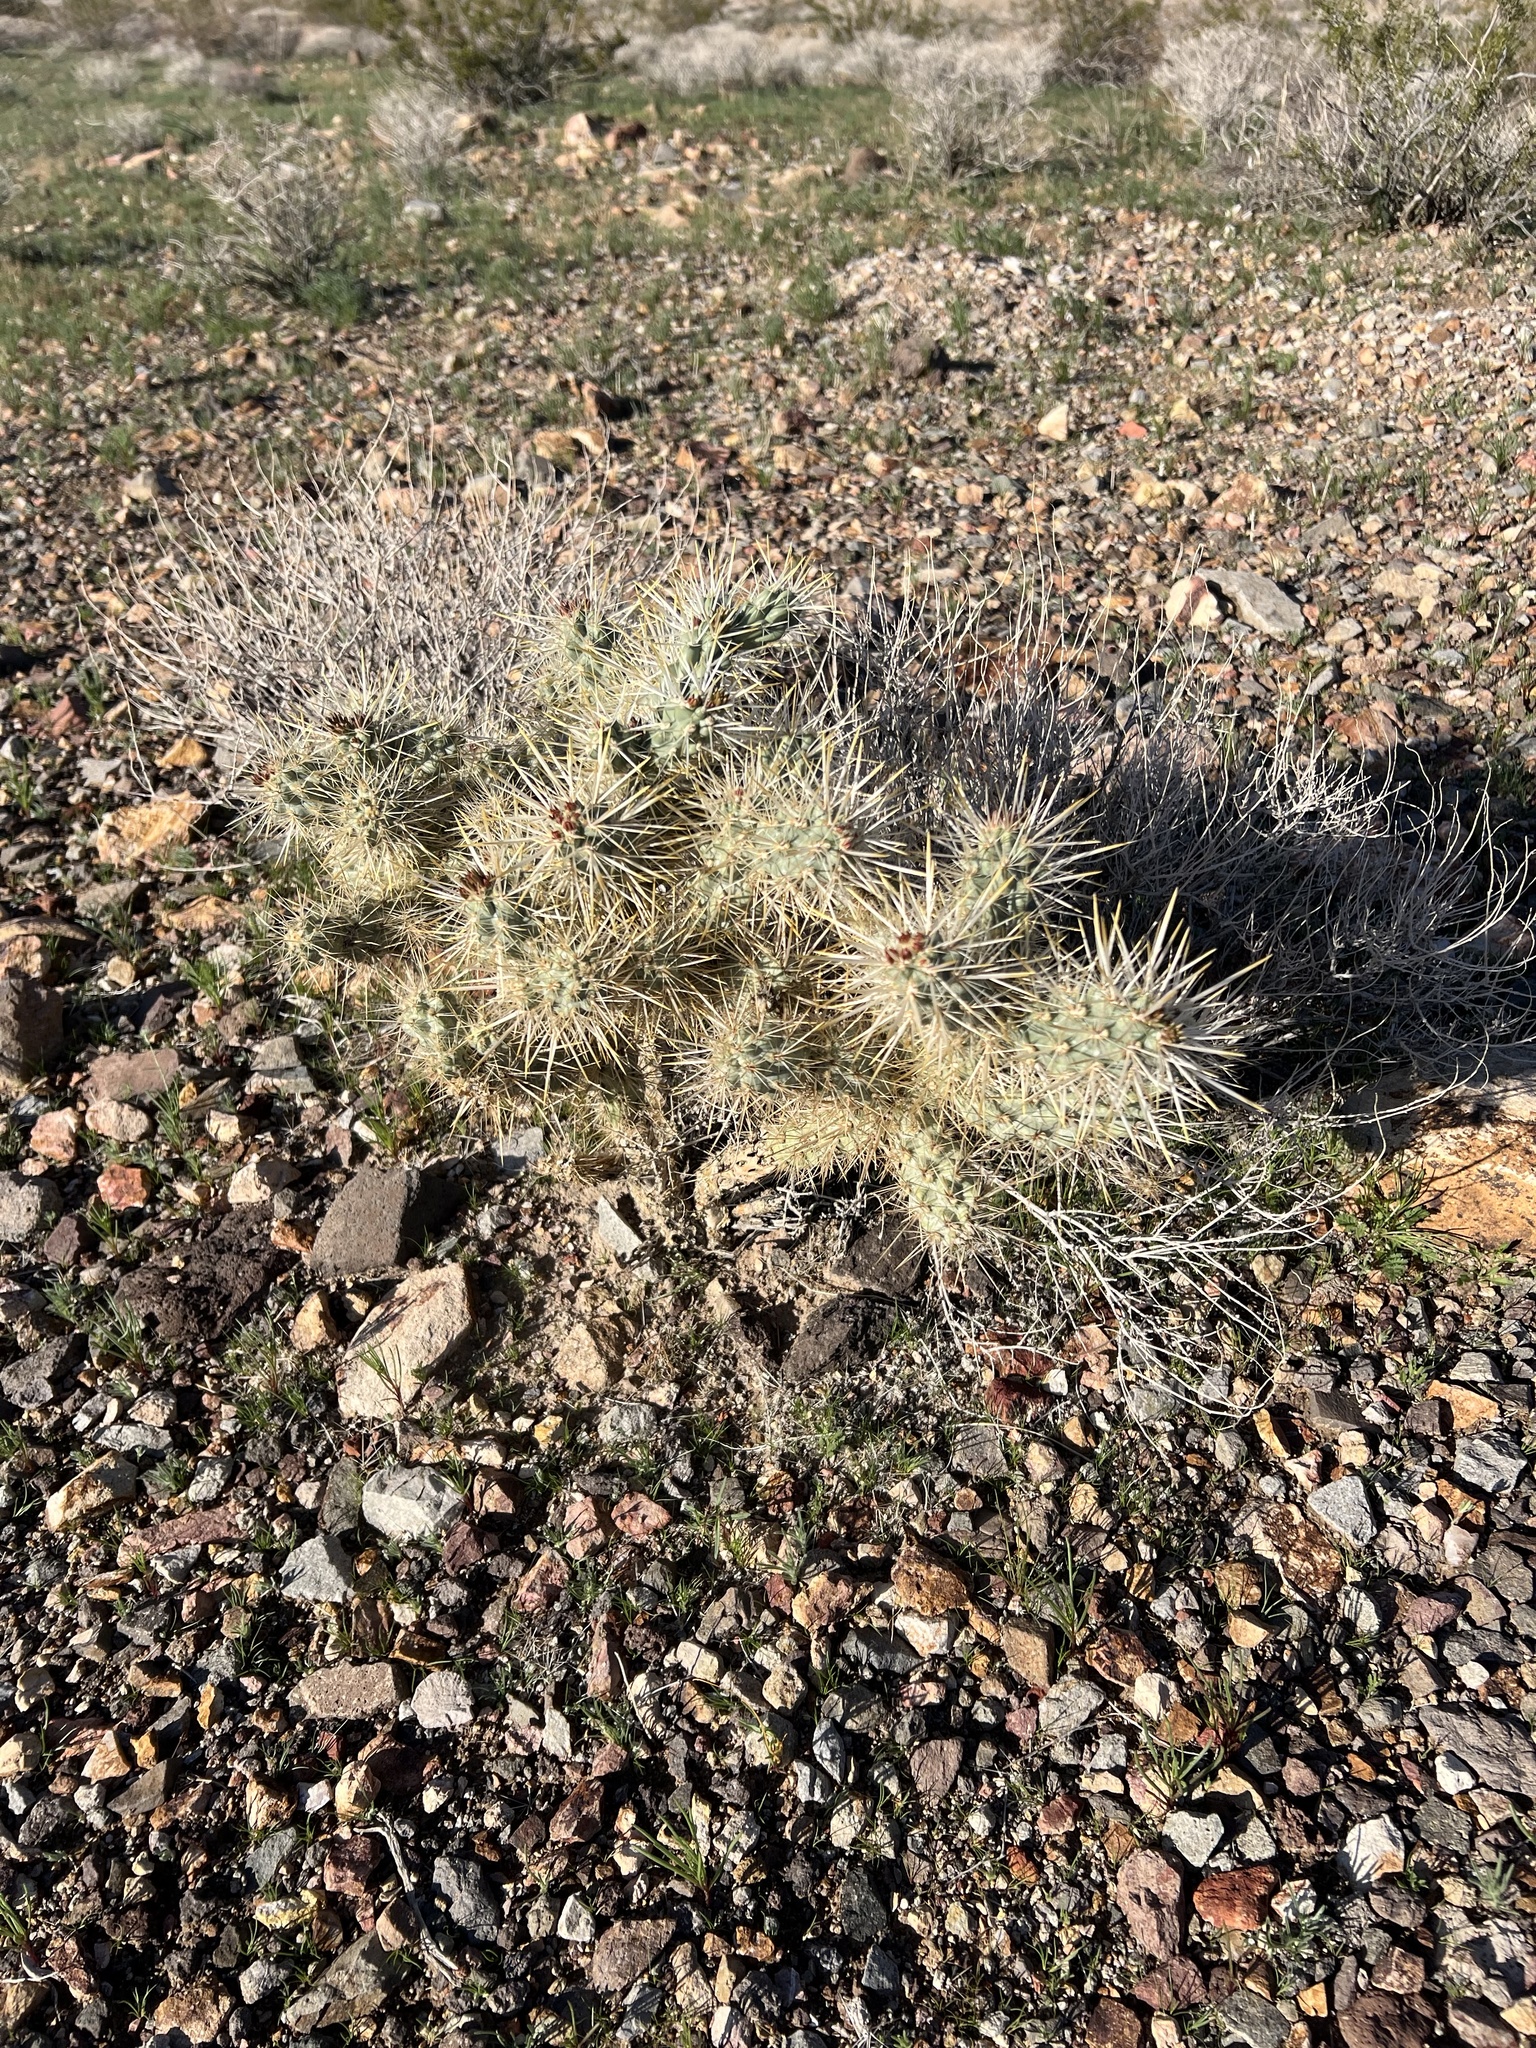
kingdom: Plantae
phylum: Tracheophyta
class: Magnoliopsida
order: Caryophyllales
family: Cactaceae
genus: Cylindropuntia
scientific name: Cylindropuntia echinocarpa
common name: Ground cholla
